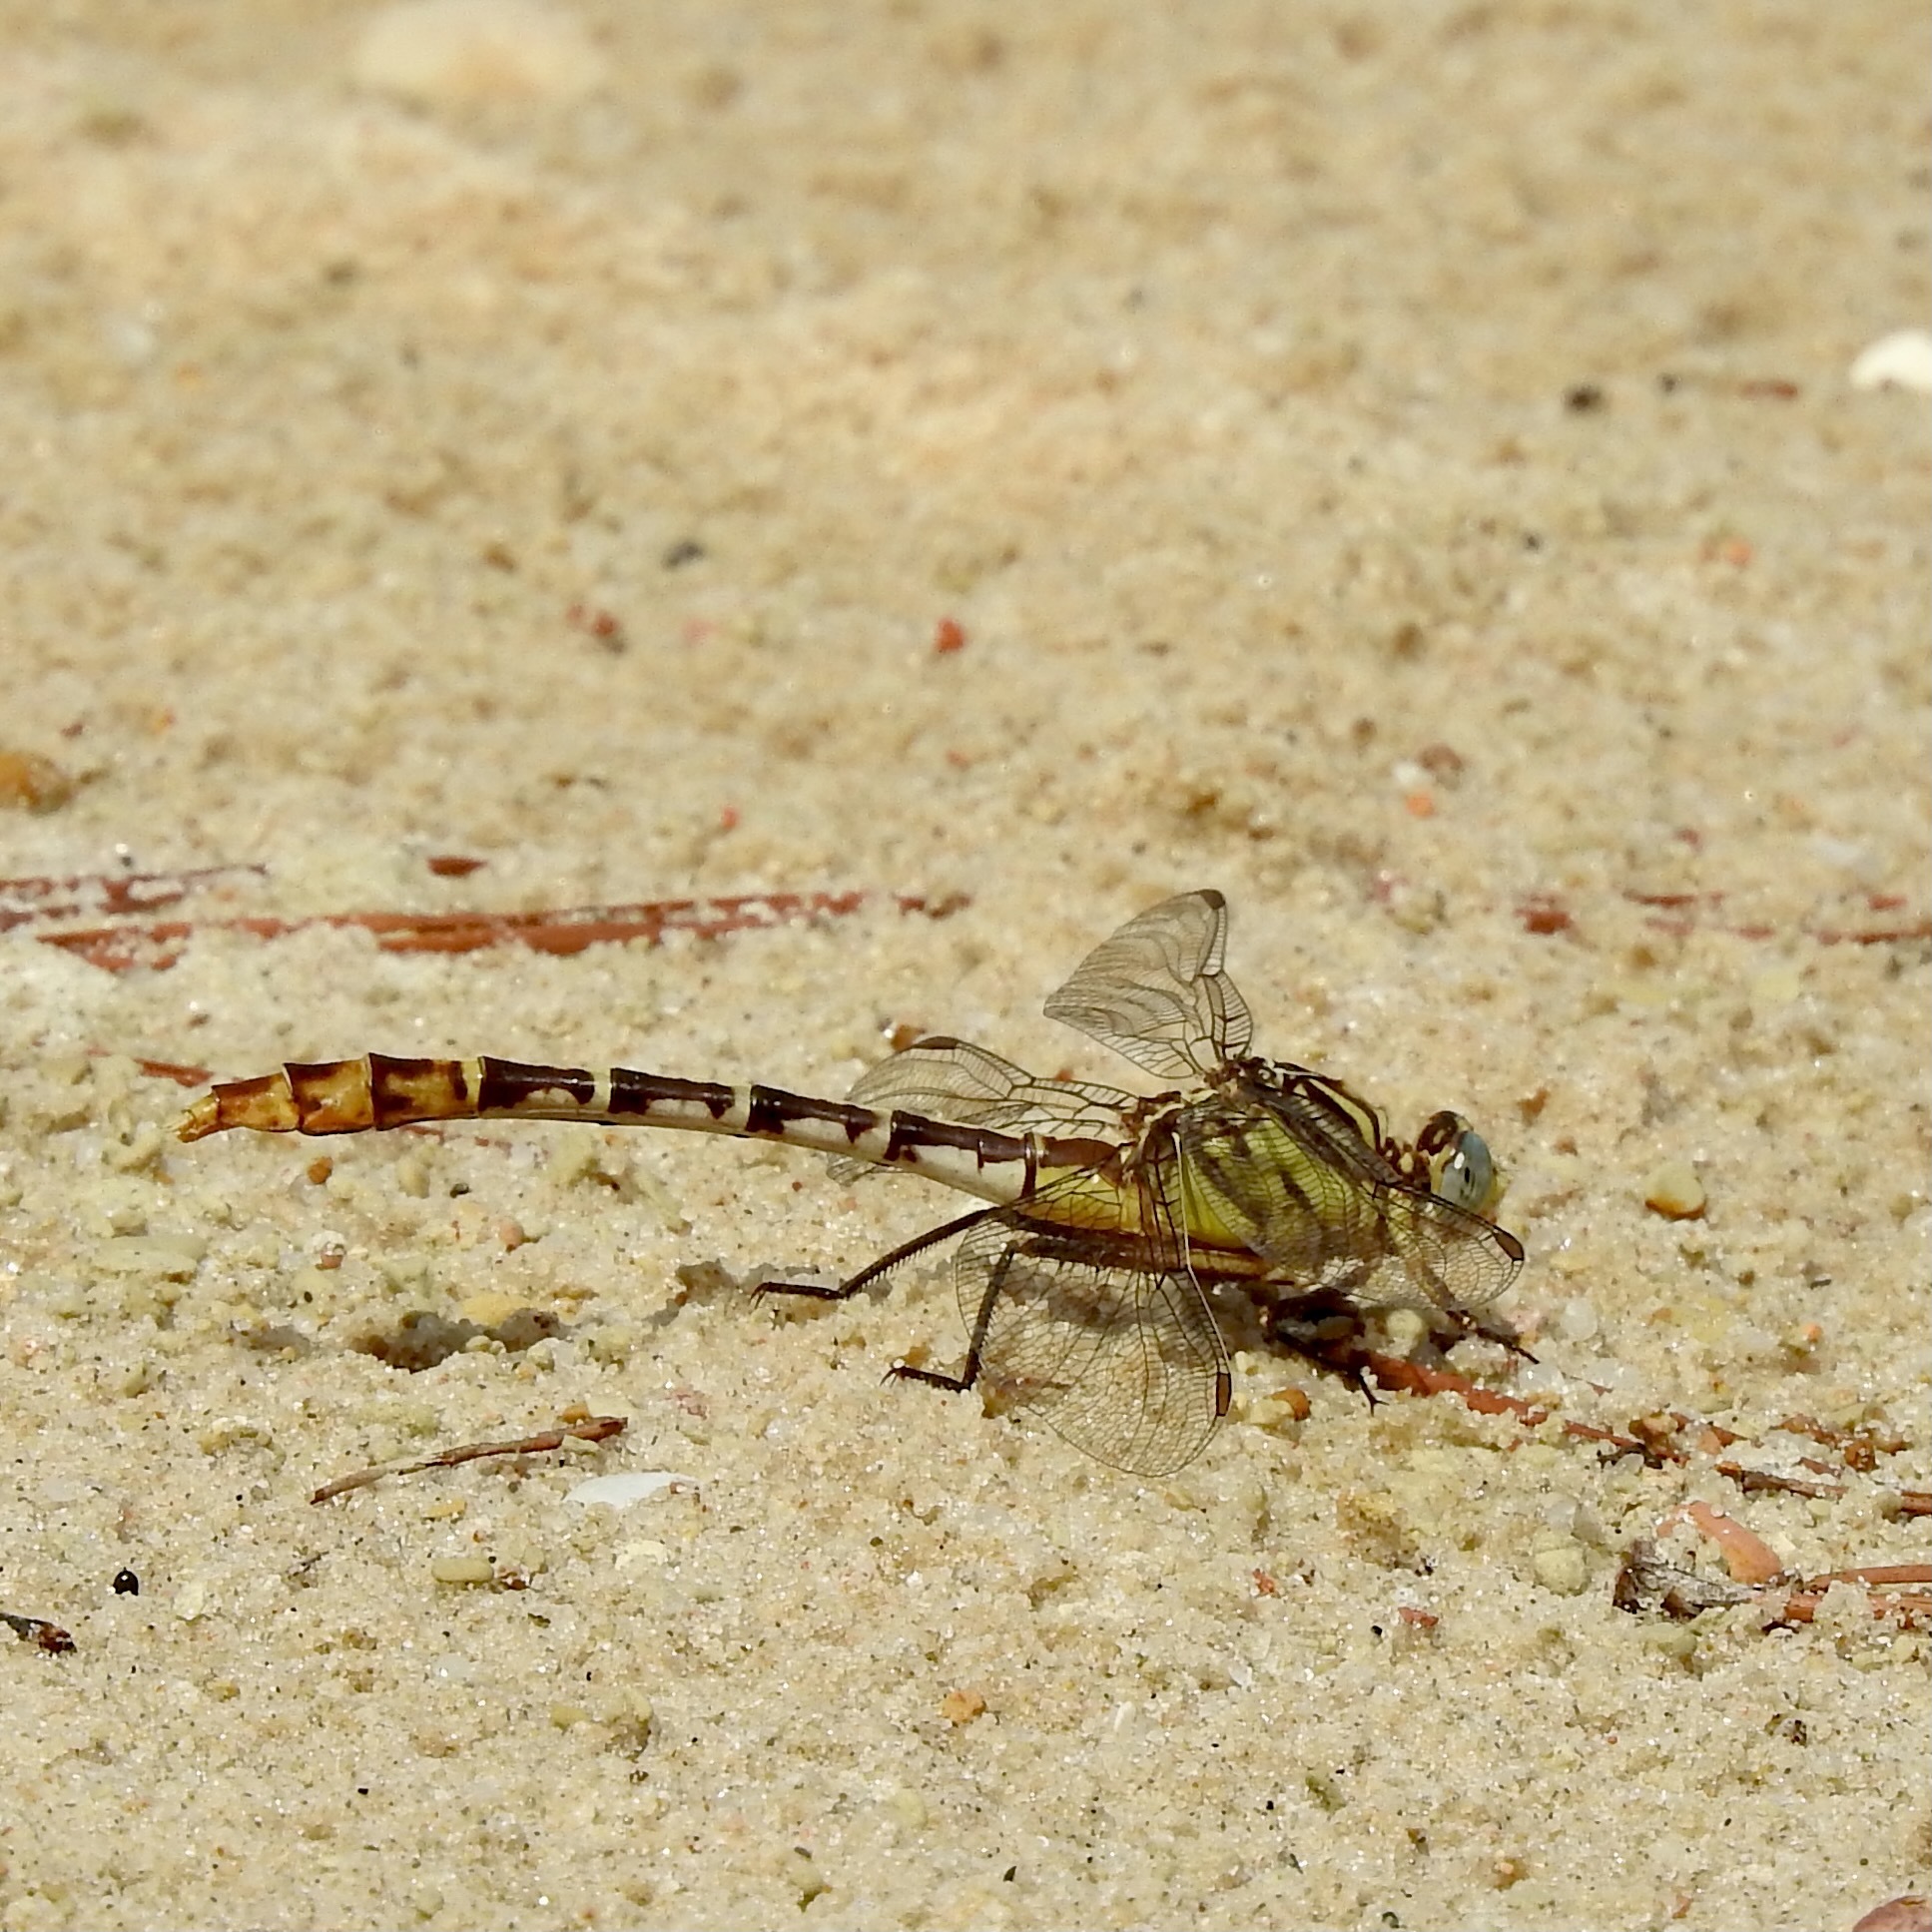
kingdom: Animalia
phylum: Arthropoda
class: Insecta
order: Odonata
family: Gomphidae
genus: Dromogomphus
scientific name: Dromogomphus spoliatus
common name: Flag-tailed spinyleg
